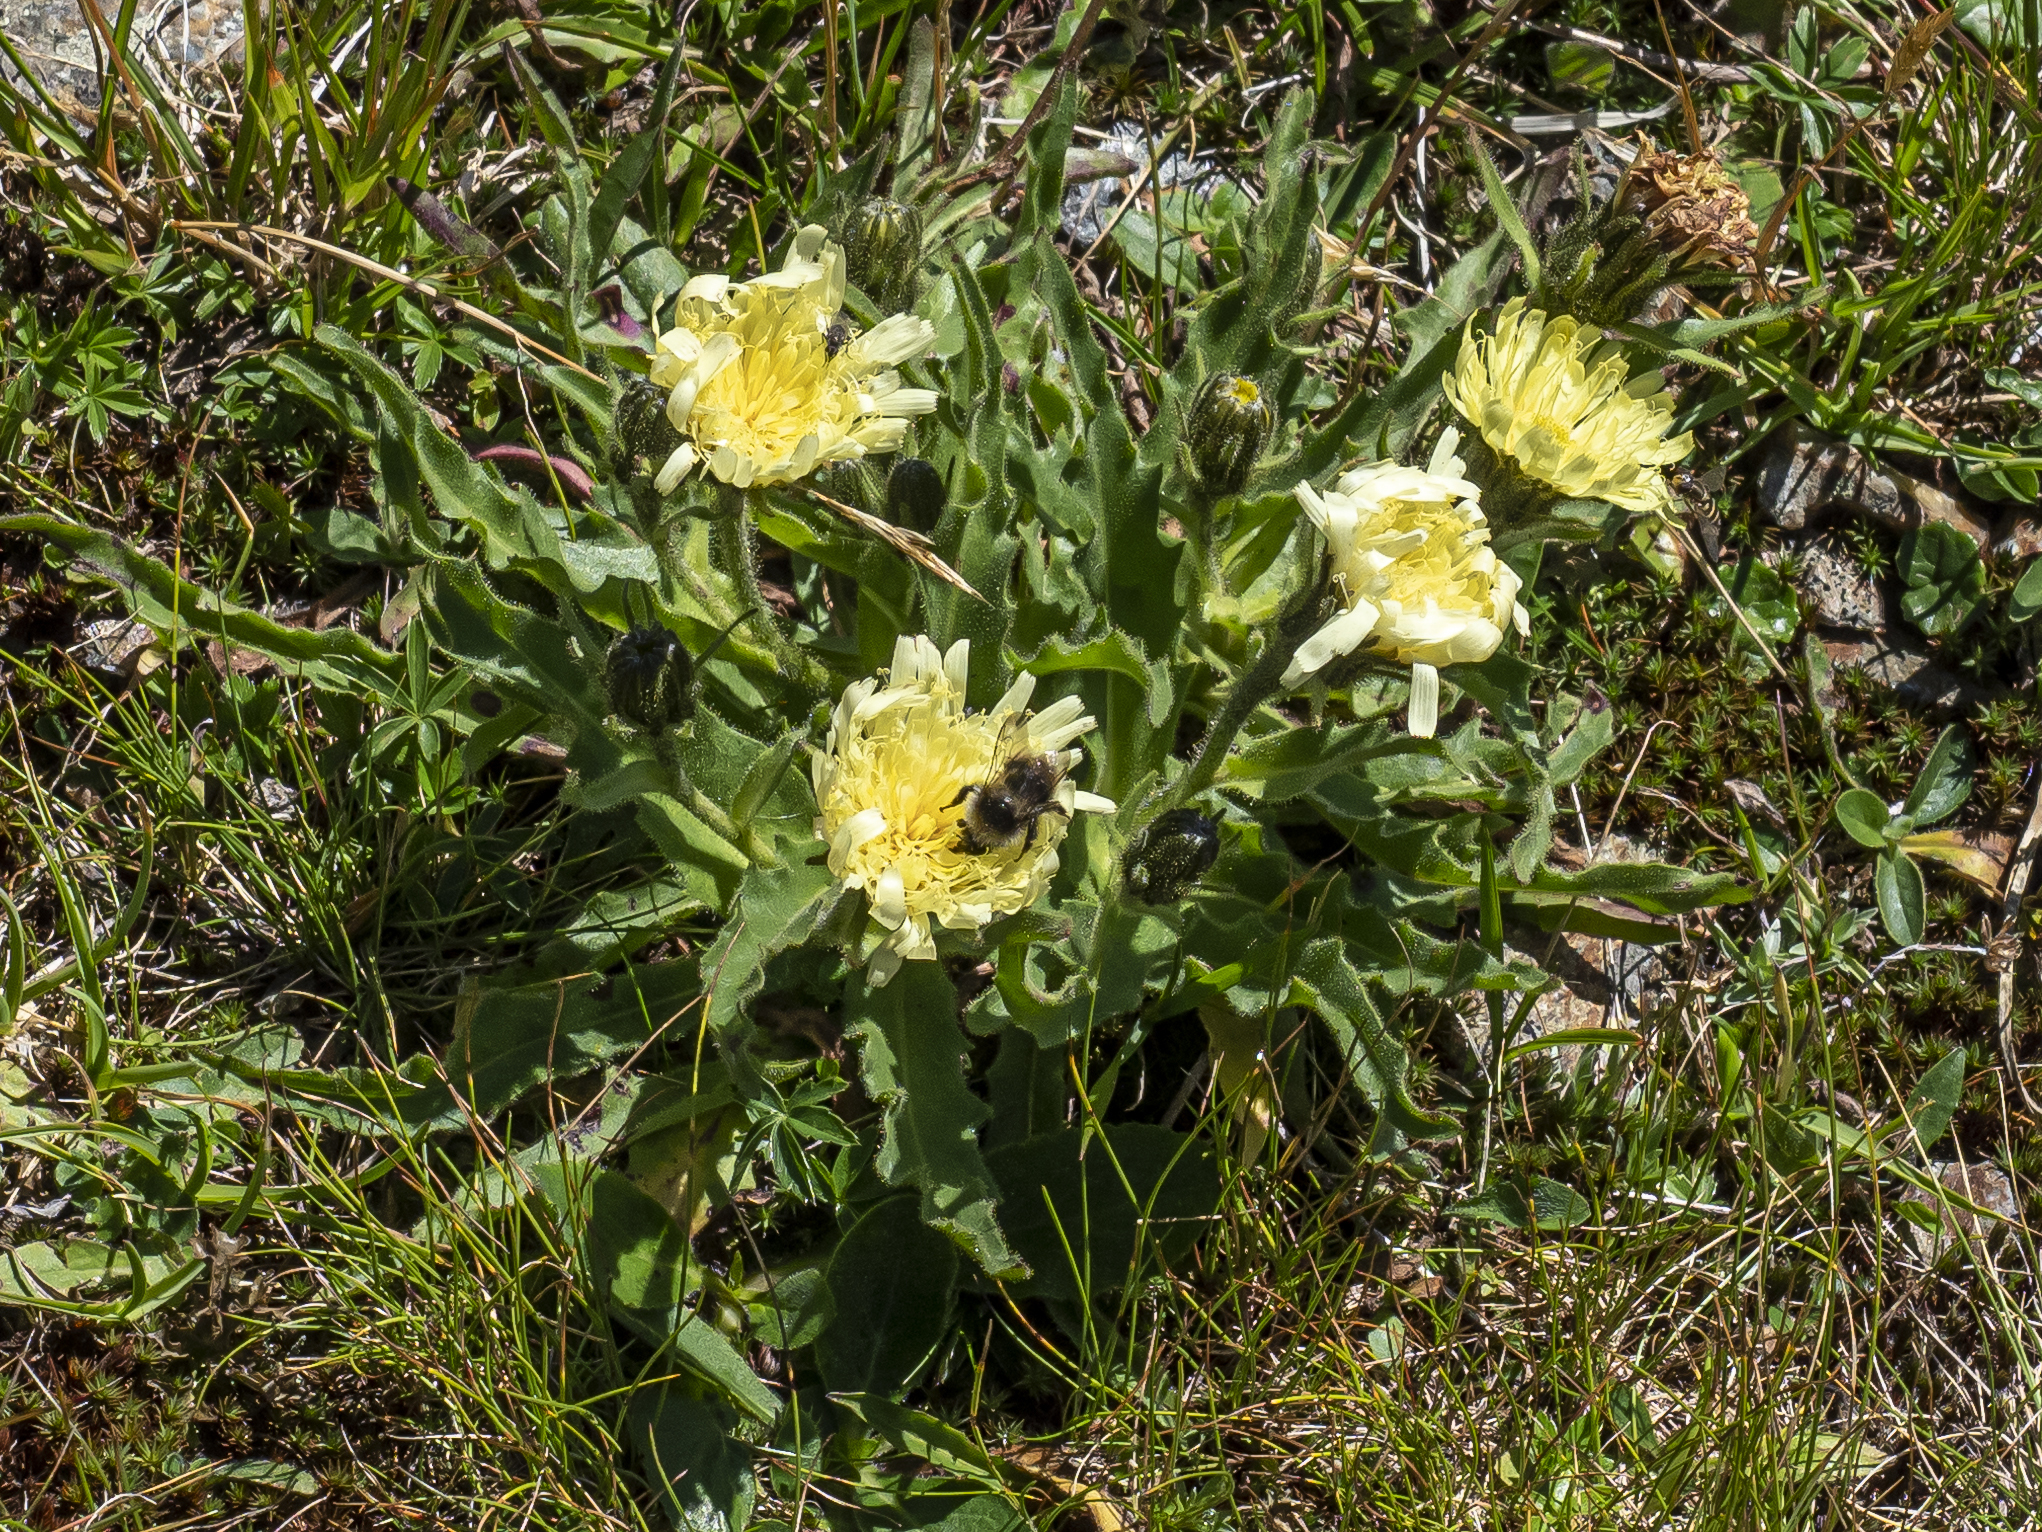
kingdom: Plantae
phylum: Tracheophyta
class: Magnoliopsida
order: Asterales
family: Asteraceae
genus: Schlagintweitia
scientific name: Schlagintweitia intybacea
